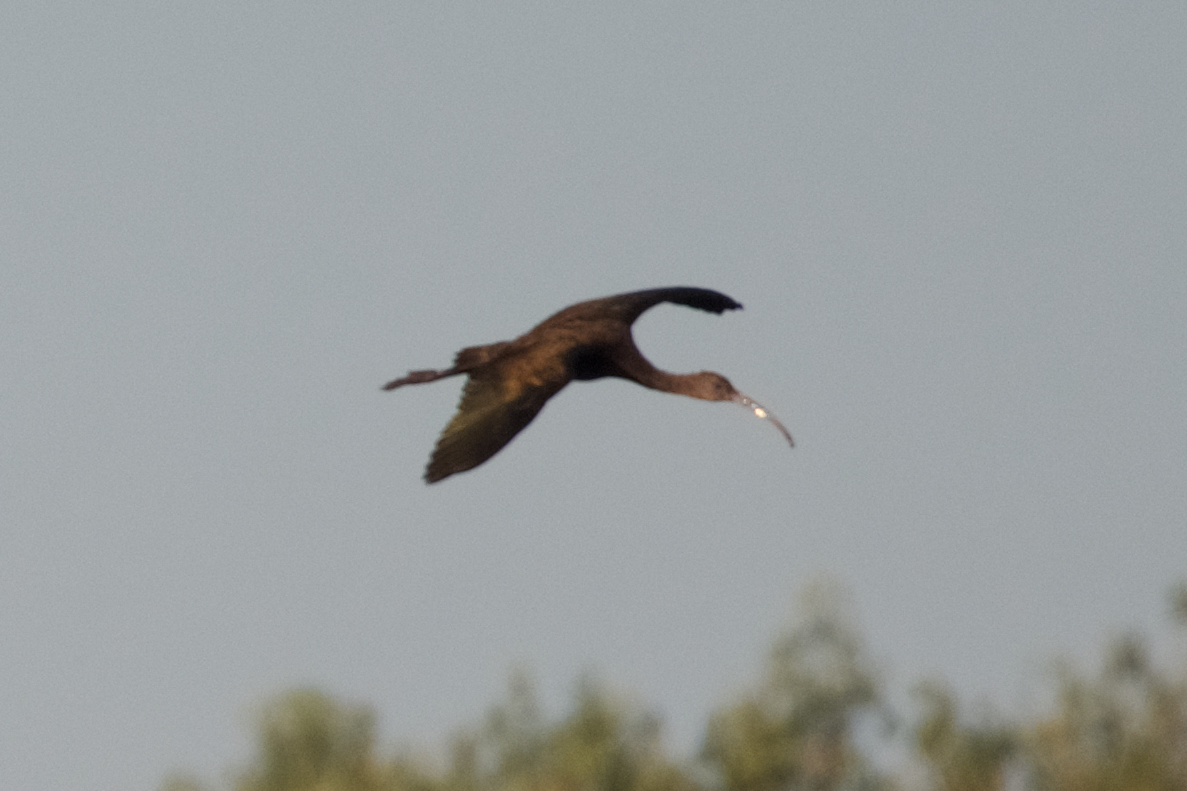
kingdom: Animalia
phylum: Chordata
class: Aves
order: Pelecaniformes
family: Threskiornithidae
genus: Plegadis
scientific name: Plegadis chihi
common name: White-faced ibis
